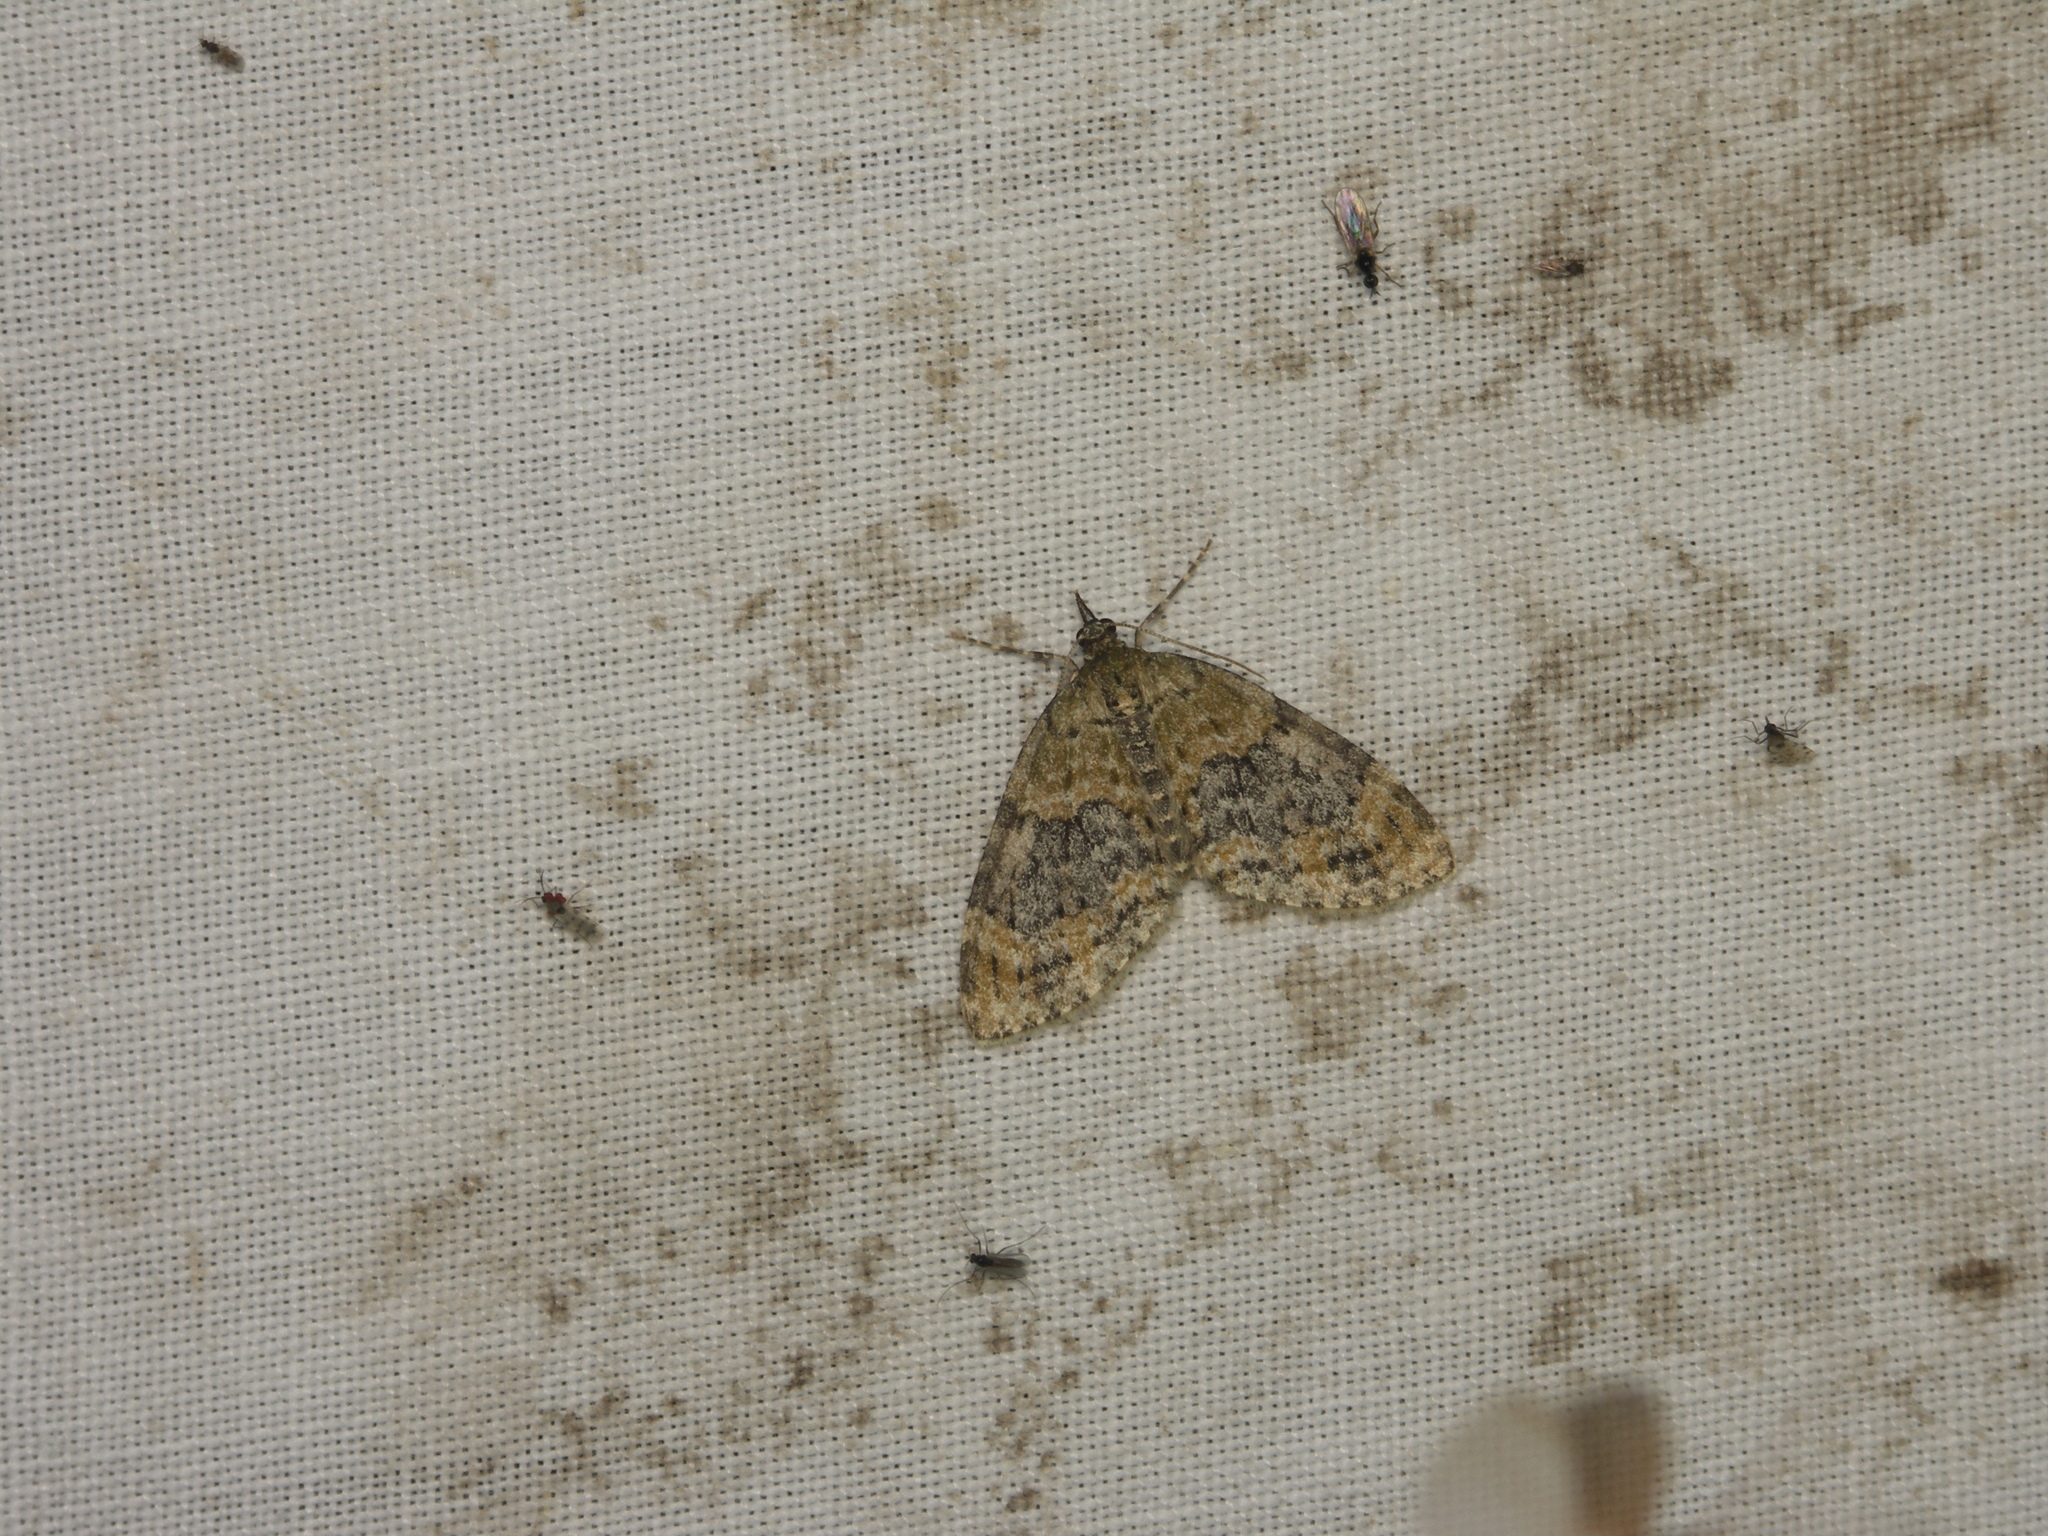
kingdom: Animalia
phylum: Arthropoda
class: Insecta
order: Lepidoptera
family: Geometridae
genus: Acasis
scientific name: Acasis viretata
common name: Yellow-barred brindle
